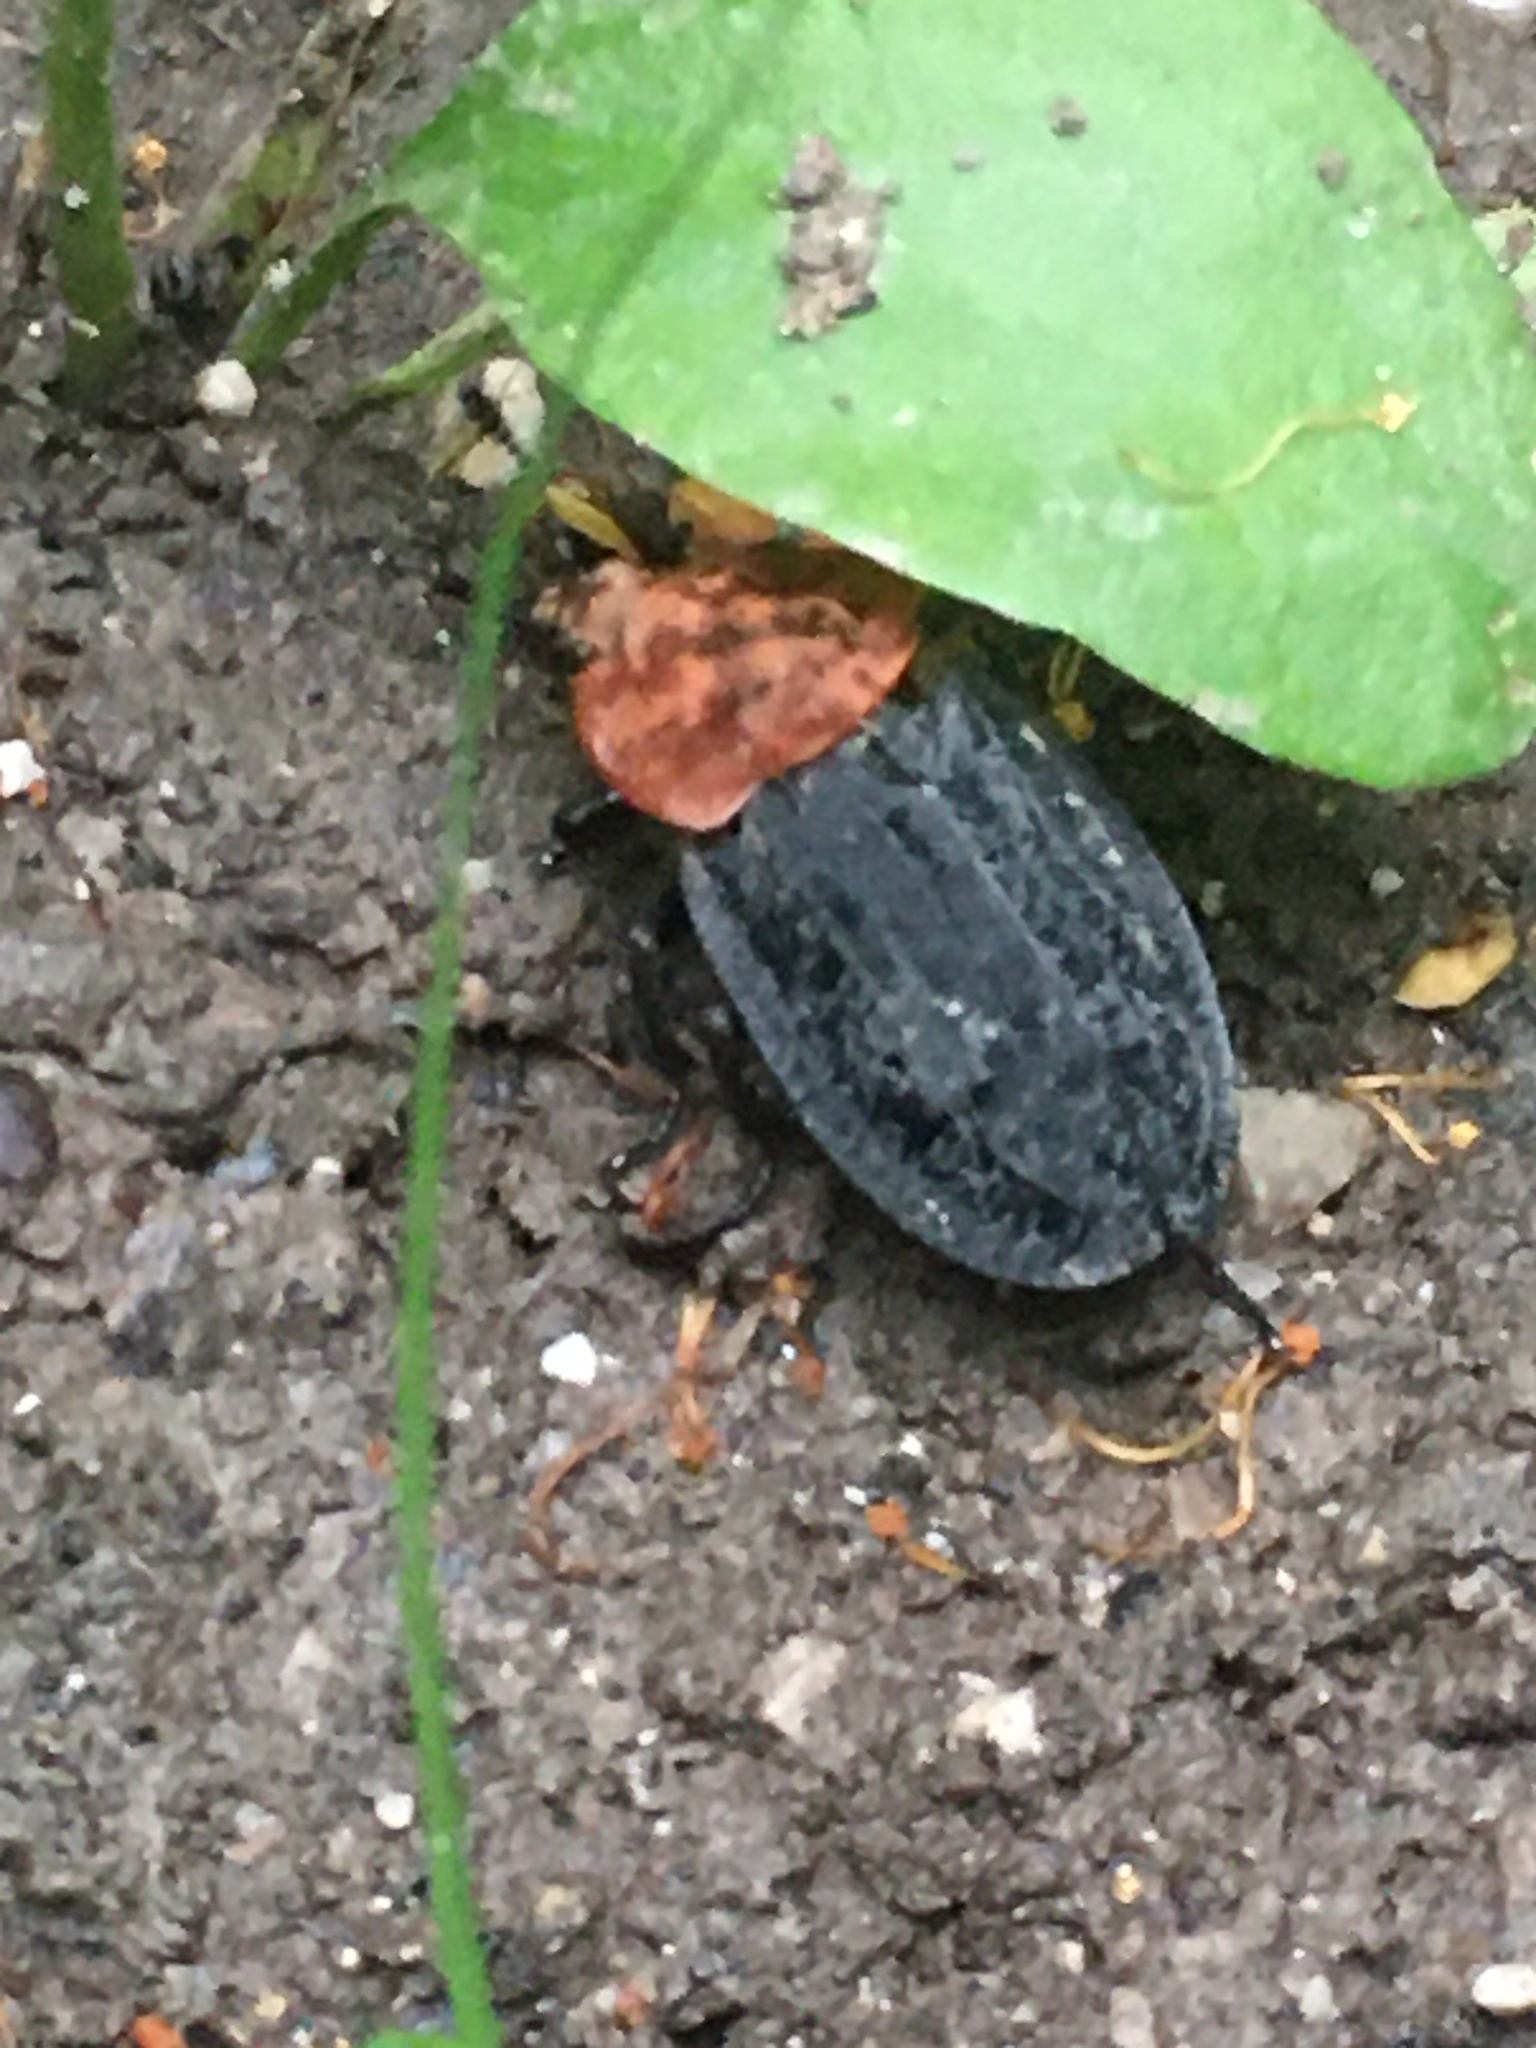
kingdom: Animalia
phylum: Arthropoda
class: Insecta
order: Coleoptera
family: Staphylinidae
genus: Oiceoptoma
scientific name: Oiceoptoma thoracicum
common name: Red-breasted carrion beetle
